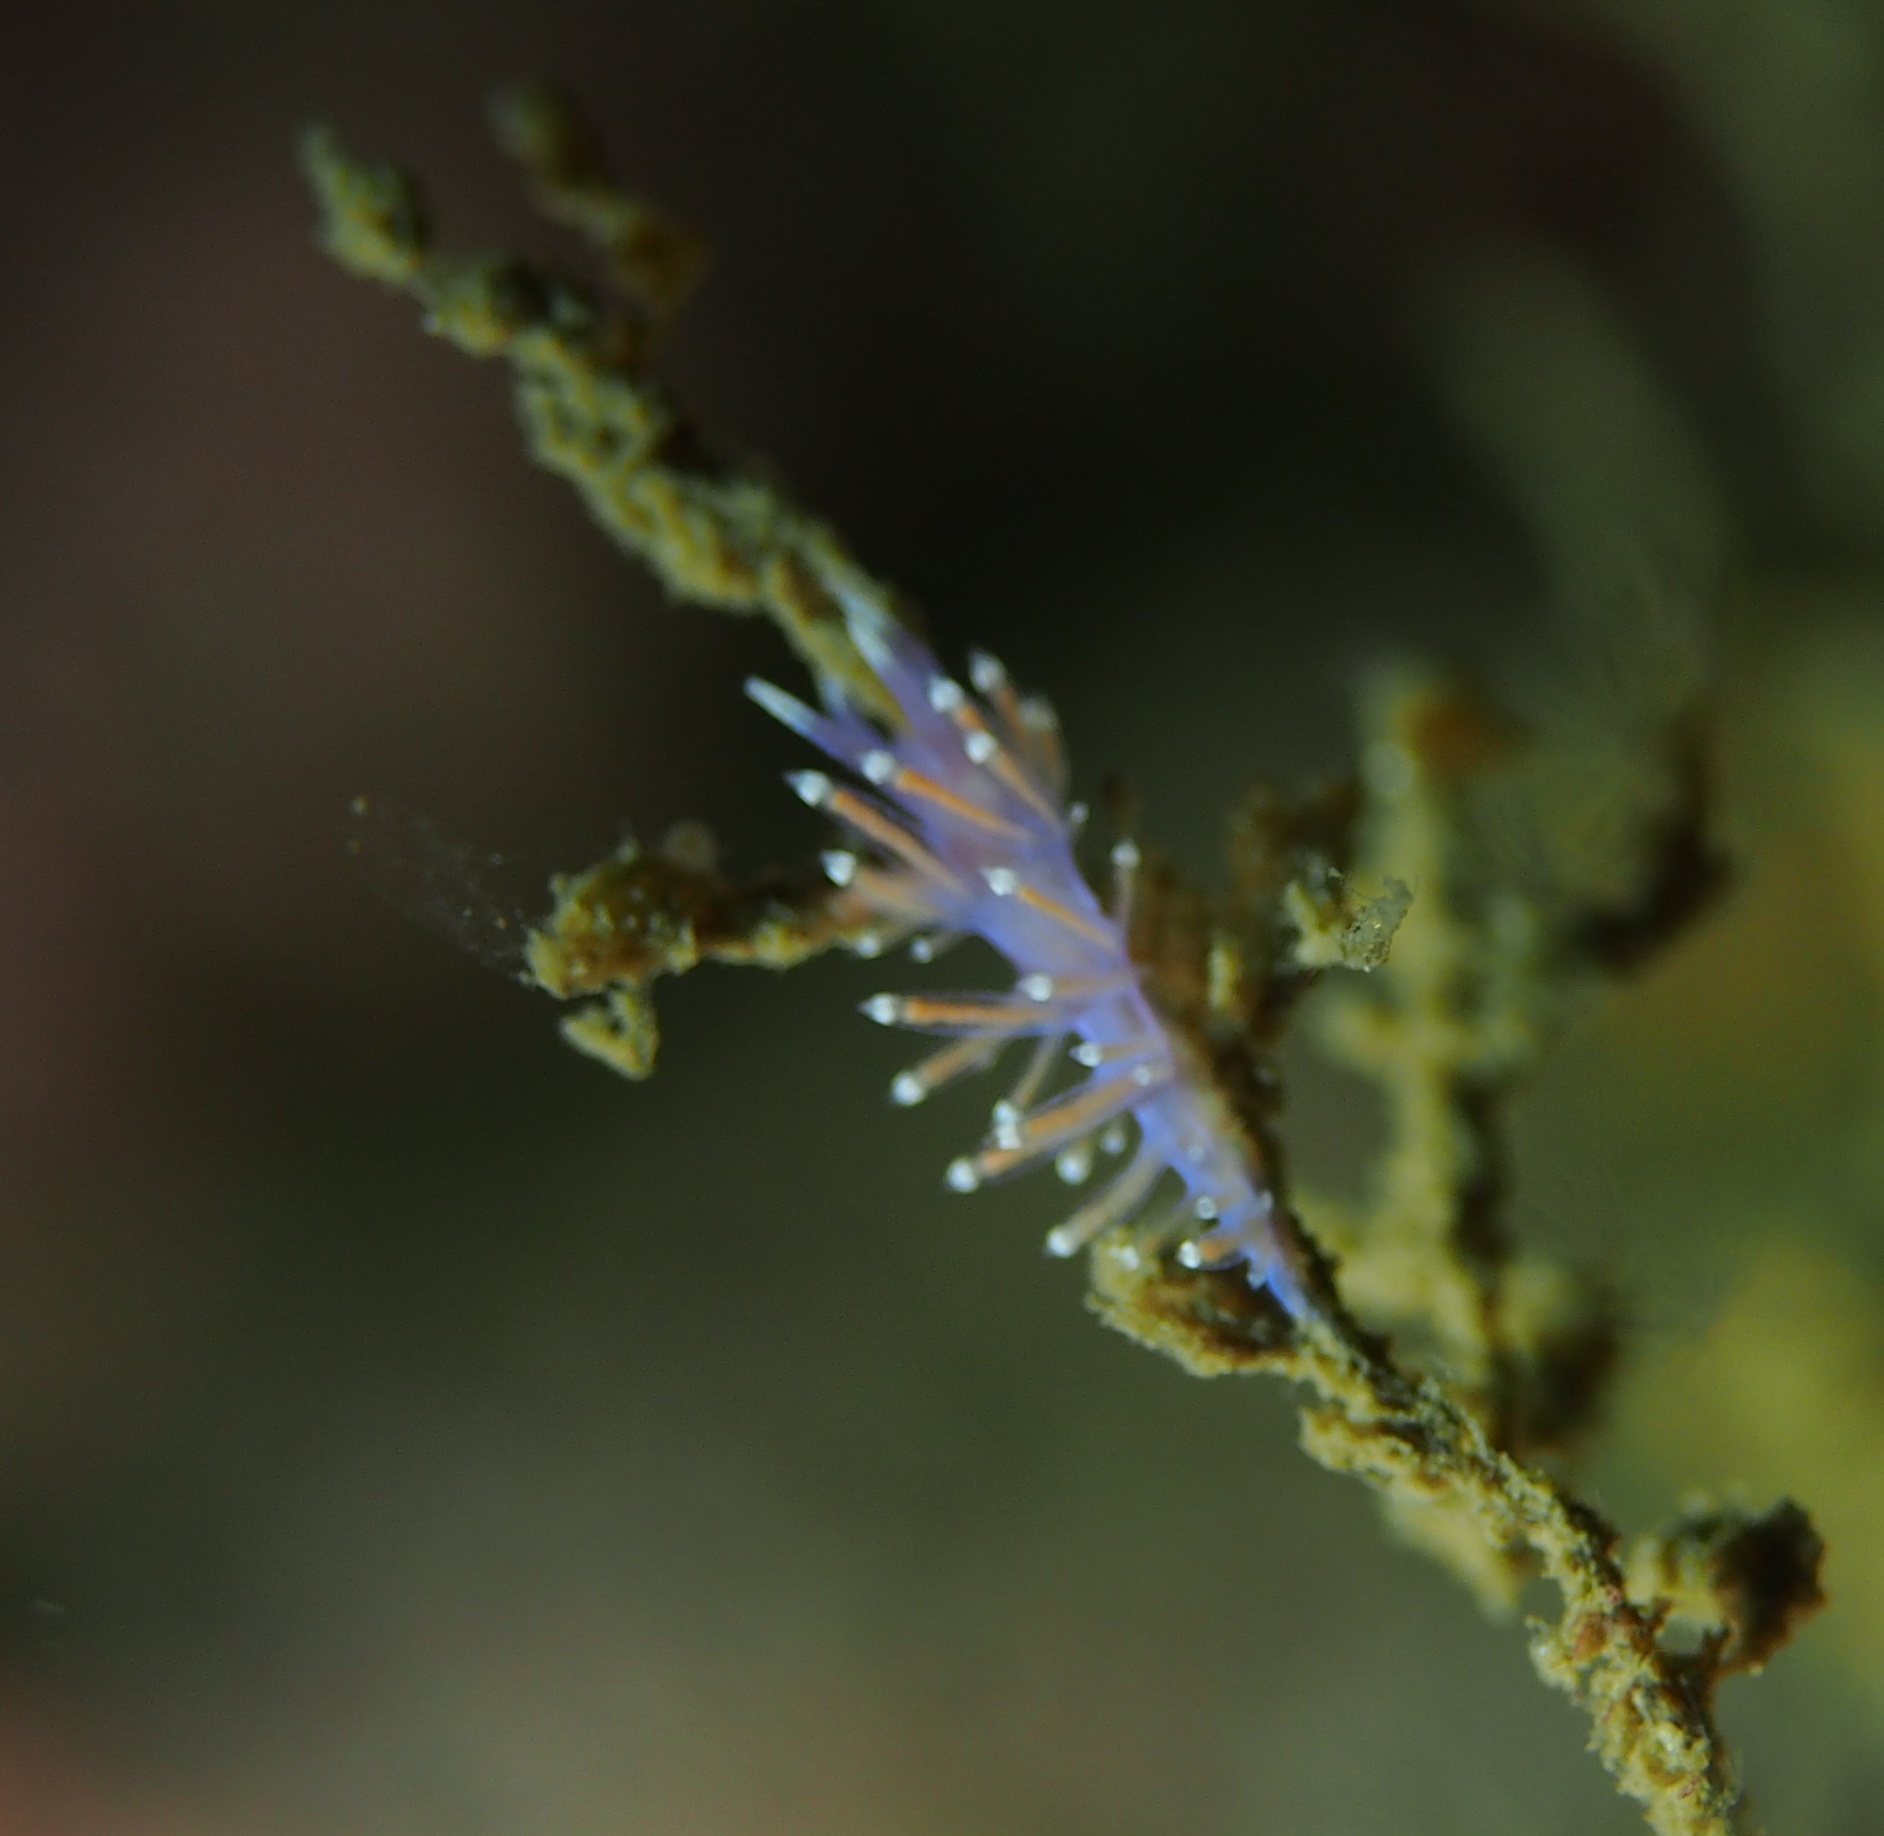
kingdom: Animalia
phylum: Mollusca
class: Gastropoda
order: Nudibranchia
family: Flabellinidae
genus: Edmundsella
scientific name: Edmundsella pedata
